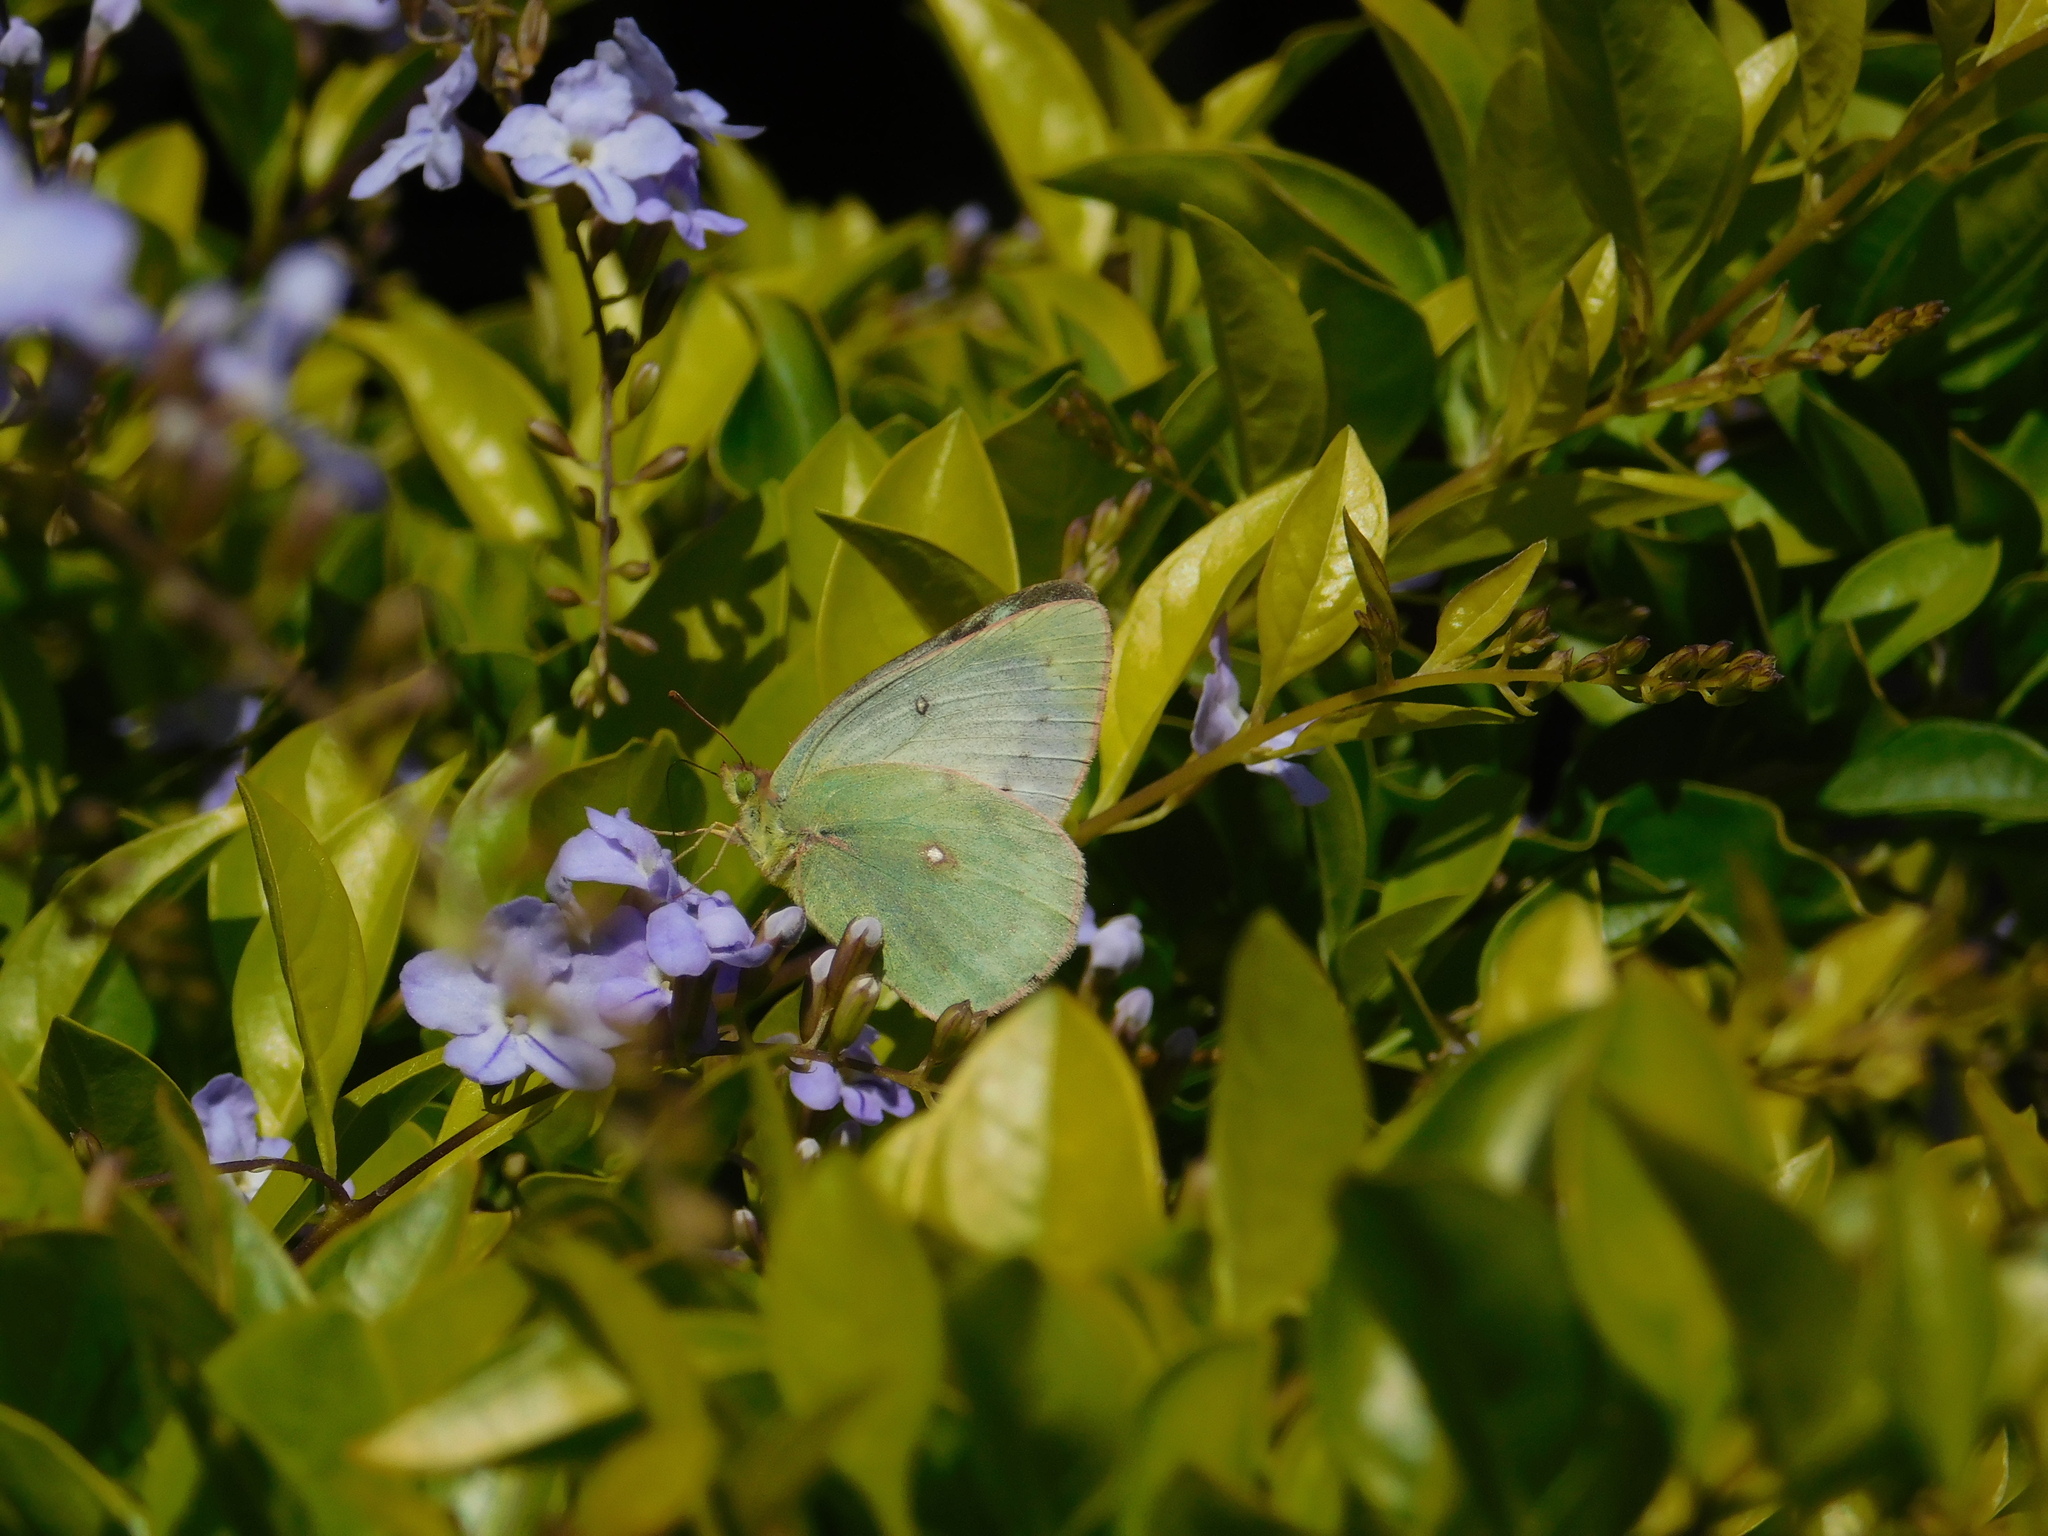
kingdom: Animalia
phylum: Arthropoda
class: Insecta
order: Lepidoptera
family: Pieridae
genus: Colias
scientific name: Colias lesbia
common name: Lesbia clouded yellow
